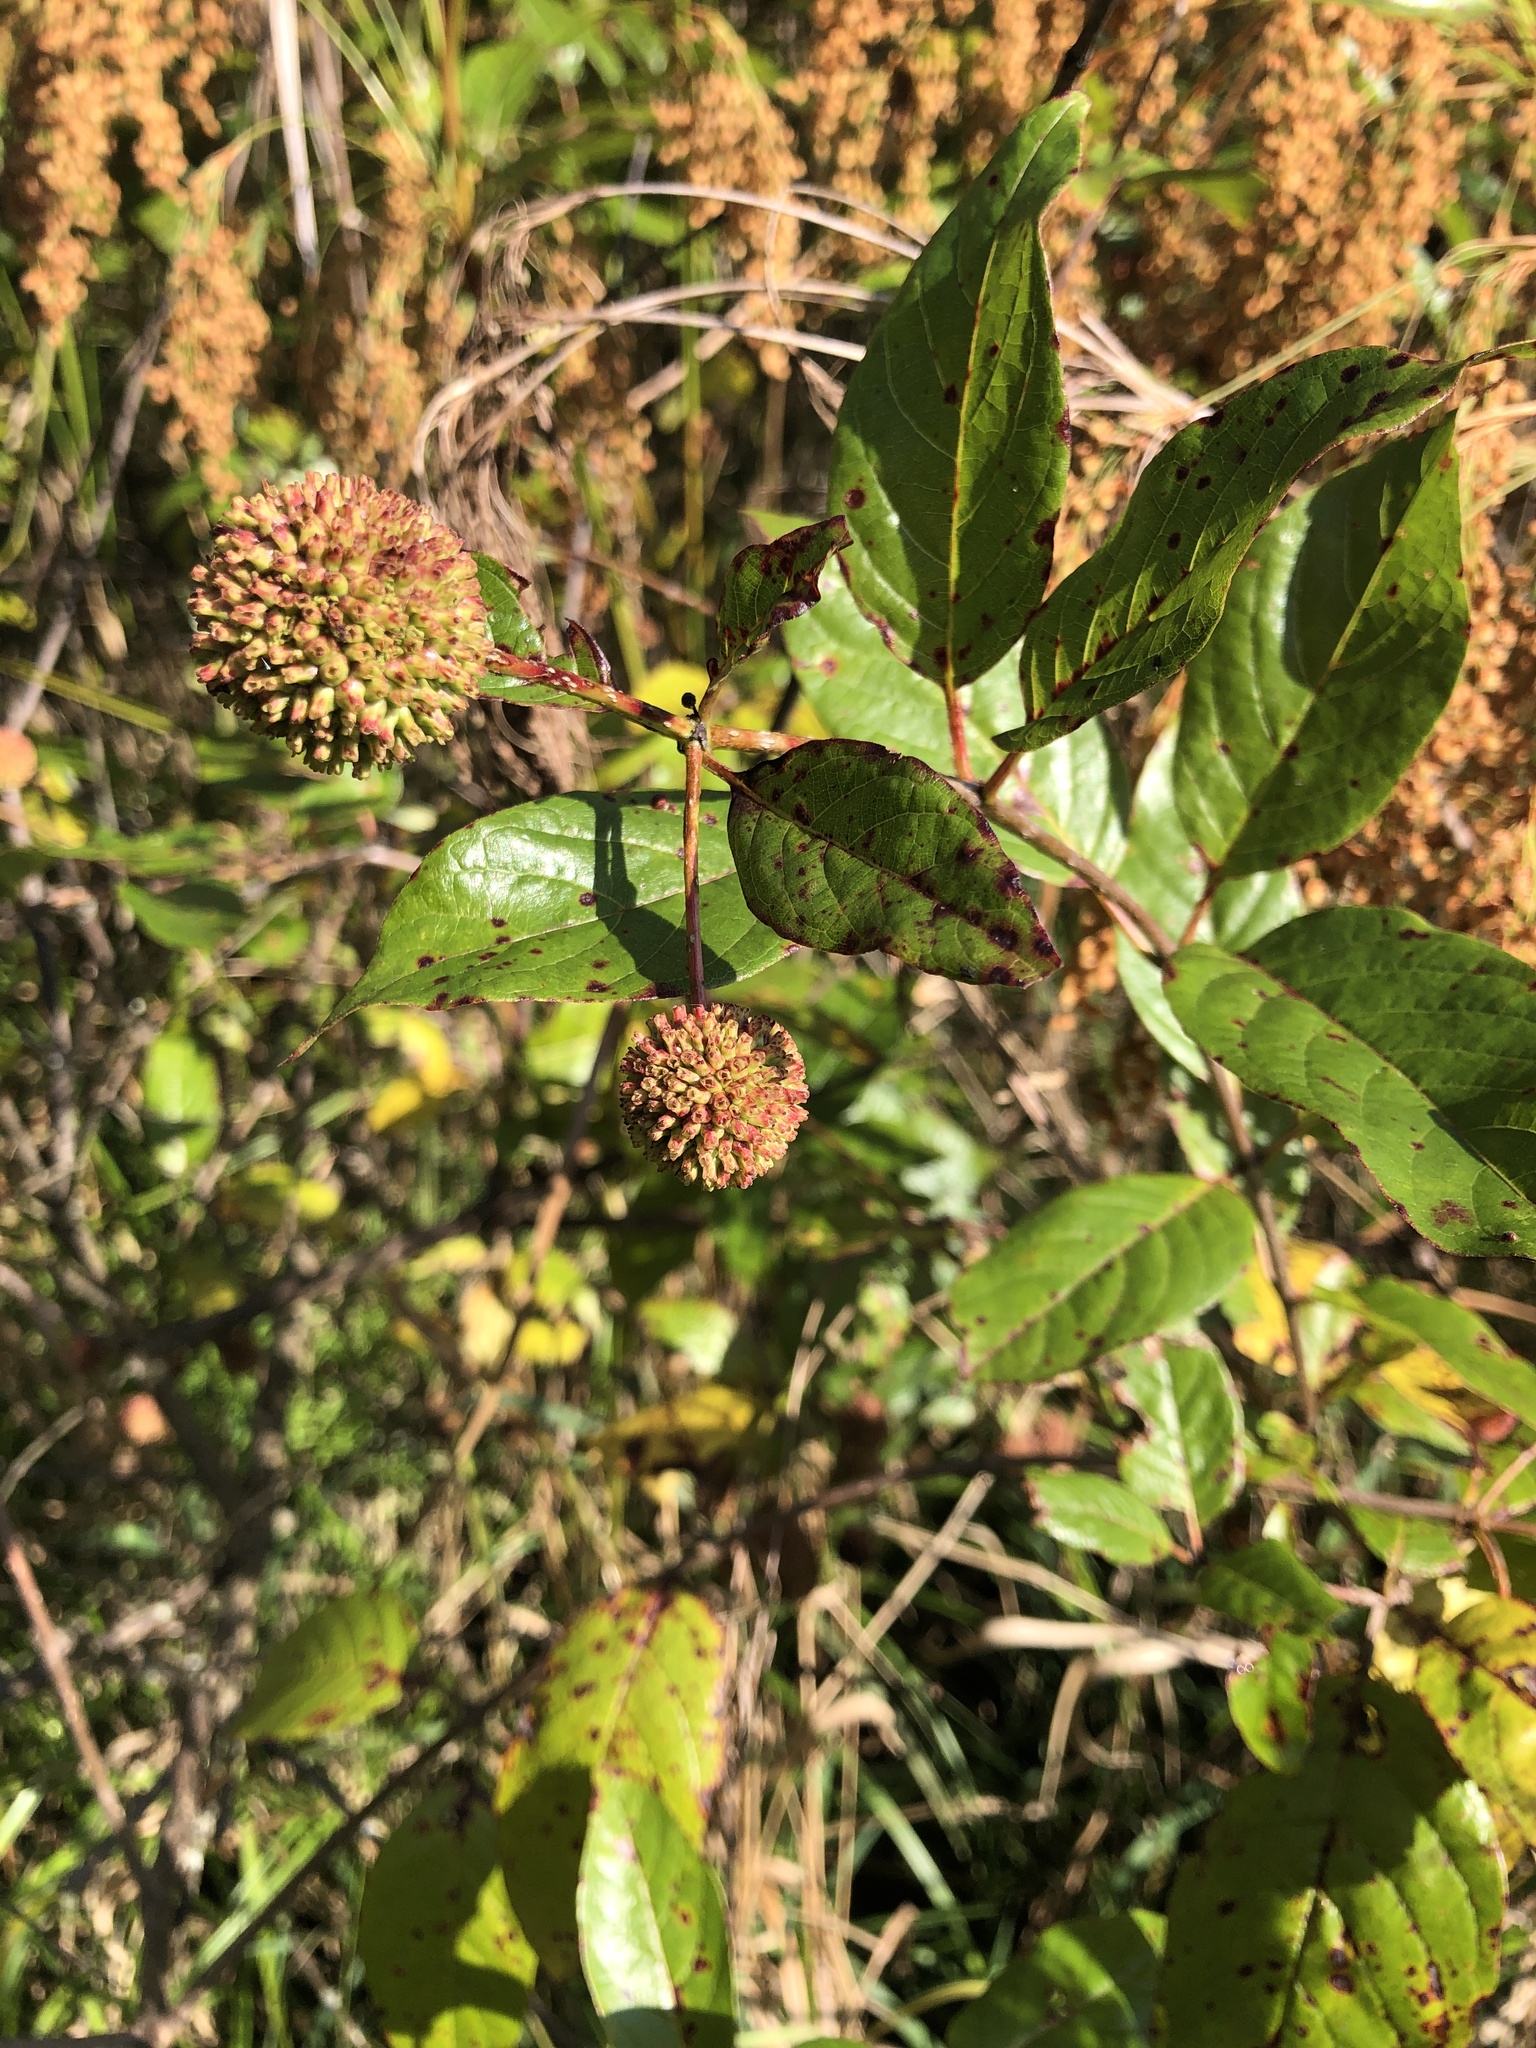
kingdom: Plantae
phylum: Tracheophyta
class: Magnoliopsida
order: Gentianales
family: Rubiaceae
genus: Cephalanthus
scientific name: Cephalanthus occidentalis
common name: Button-willow
